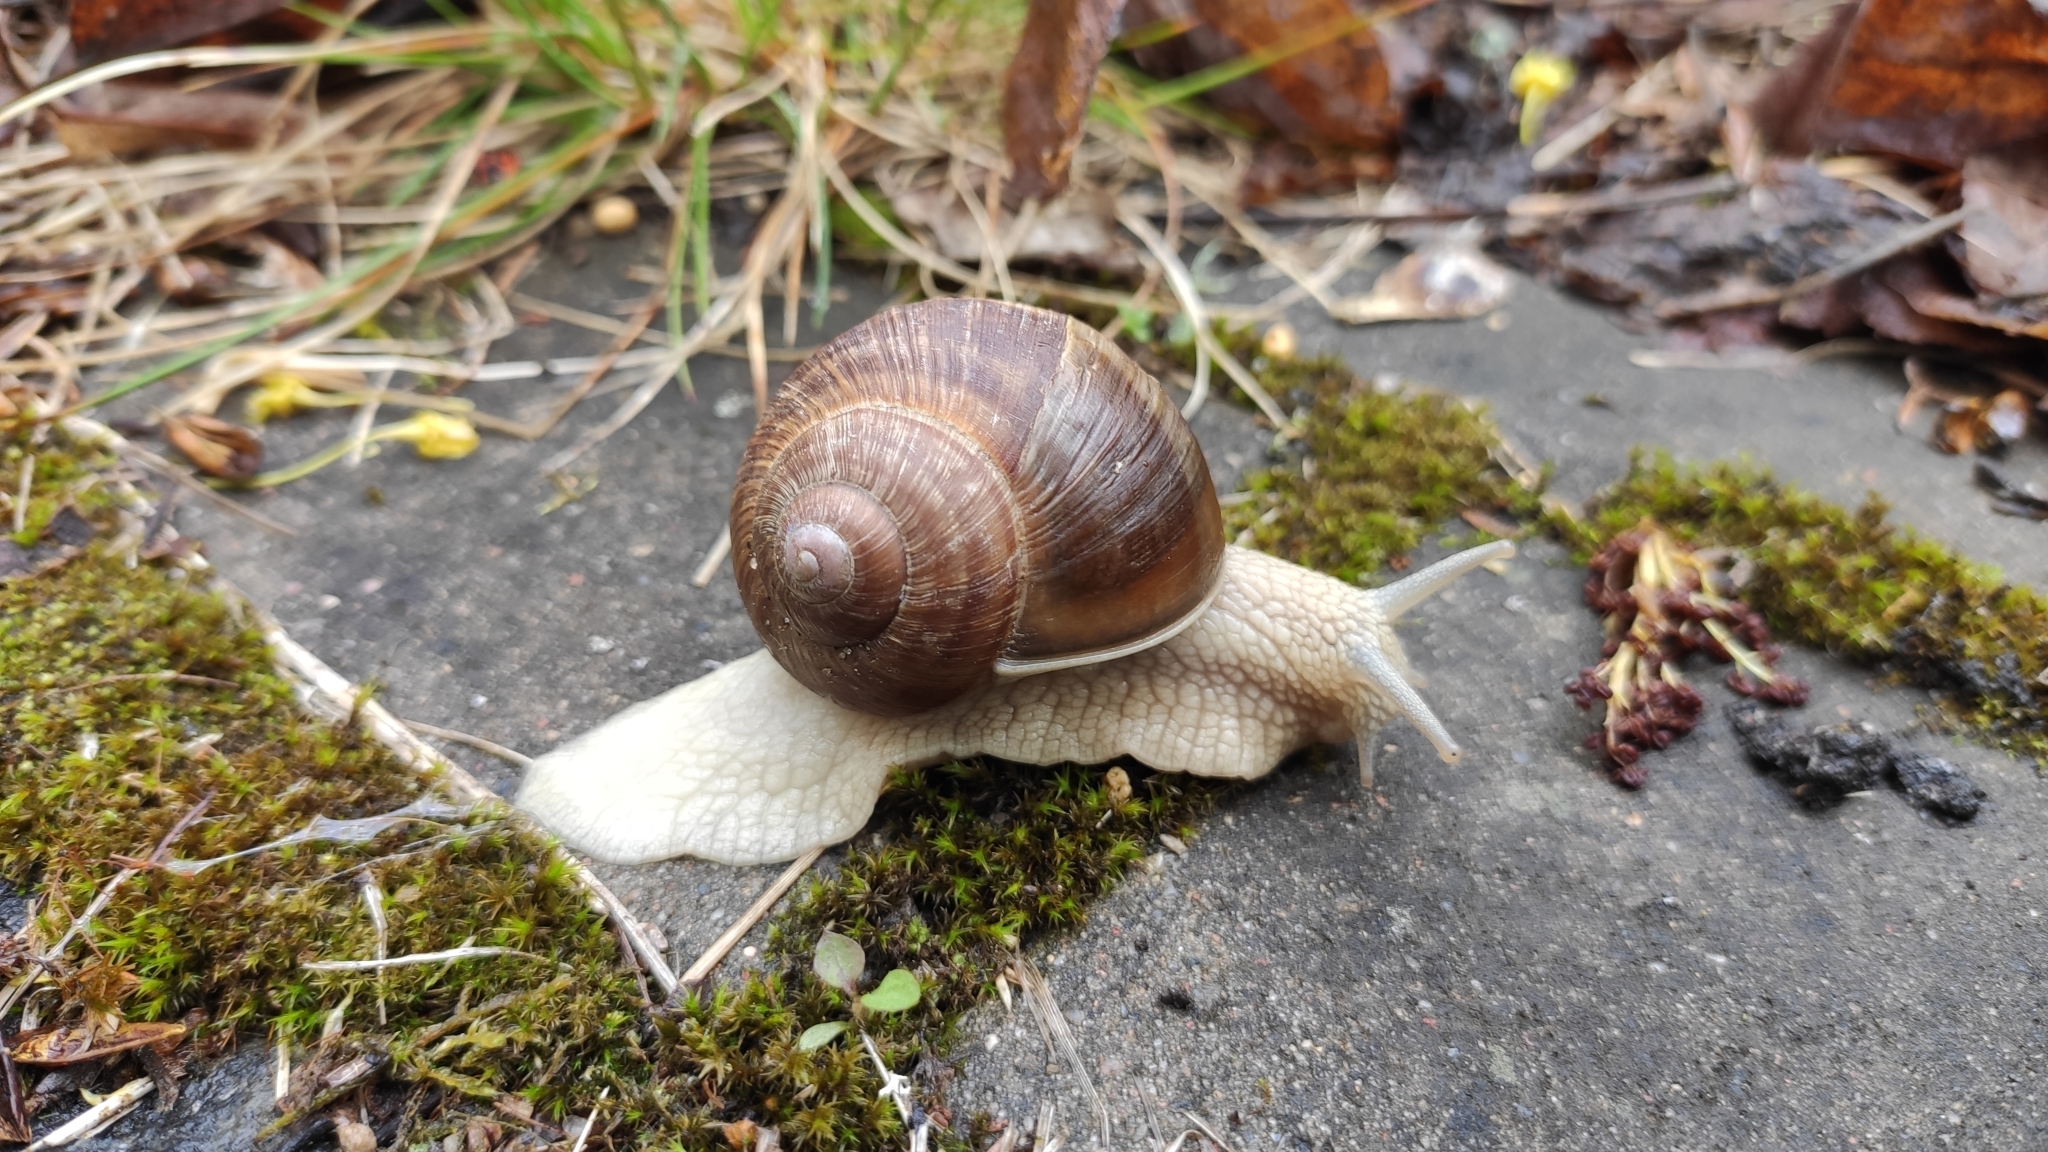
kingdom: Animalia
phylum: Mollusca
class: Gastropoda
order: Stylommatophora
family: Helicidae
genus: Helix
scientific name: Helix pomatia
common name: Roman snail
